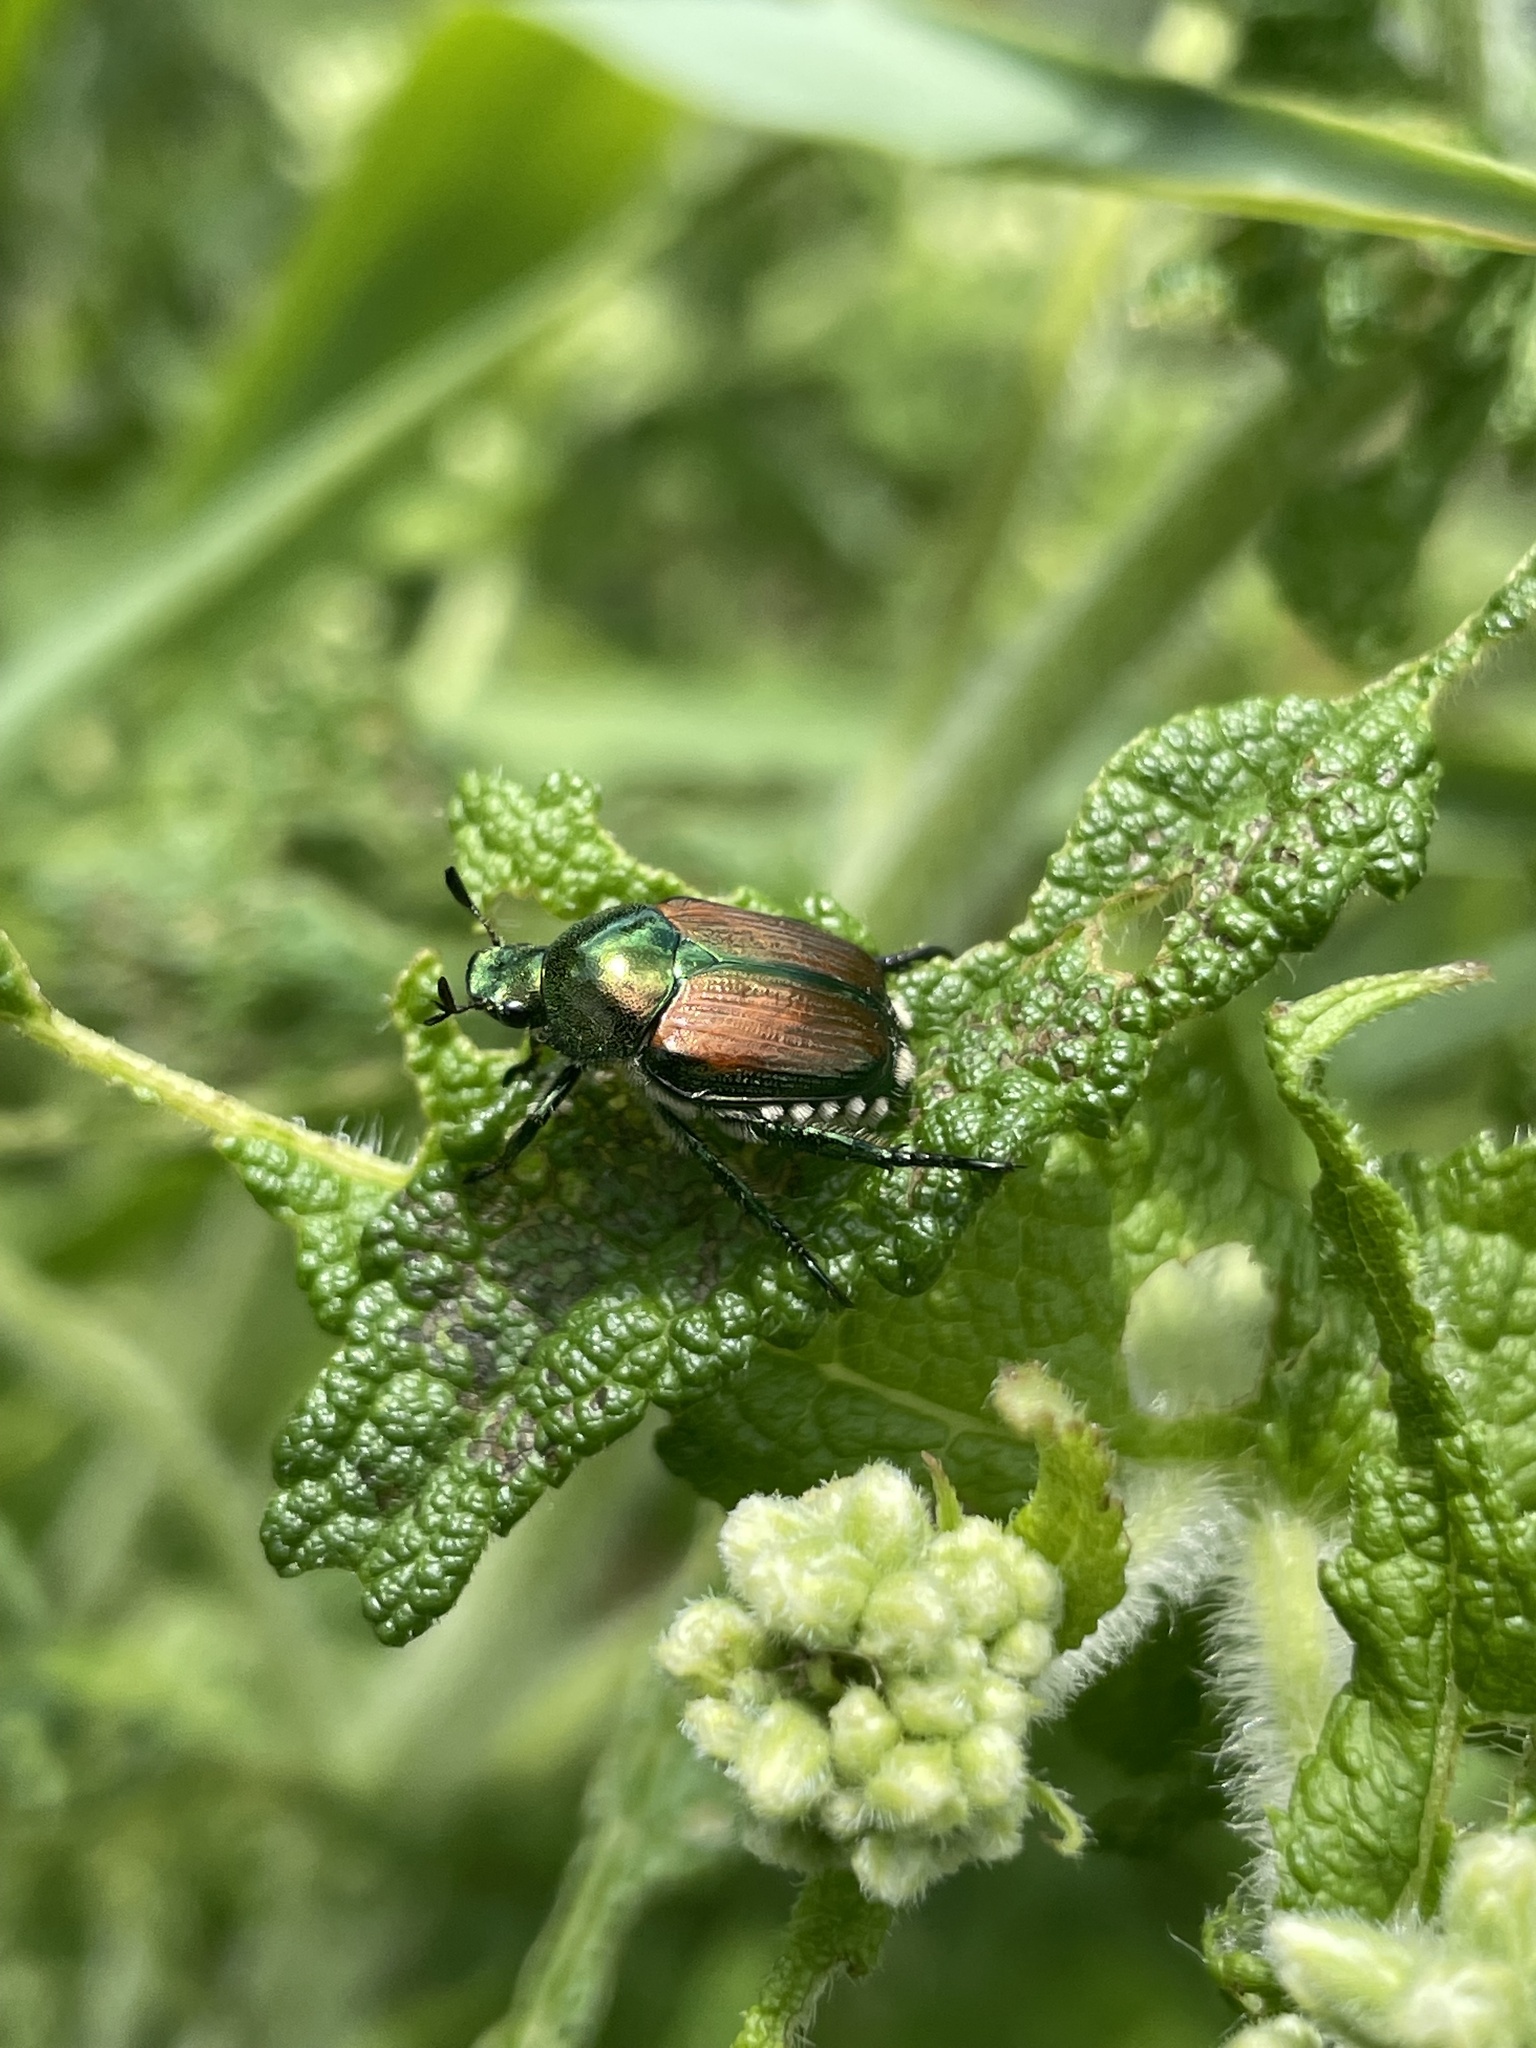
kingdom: Animalia
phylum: Arthropoda
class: Insecta
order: Coleoptera
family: Scarabaeidae
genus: Popillia
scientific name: Popillia japonica
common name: Japanese beetle
